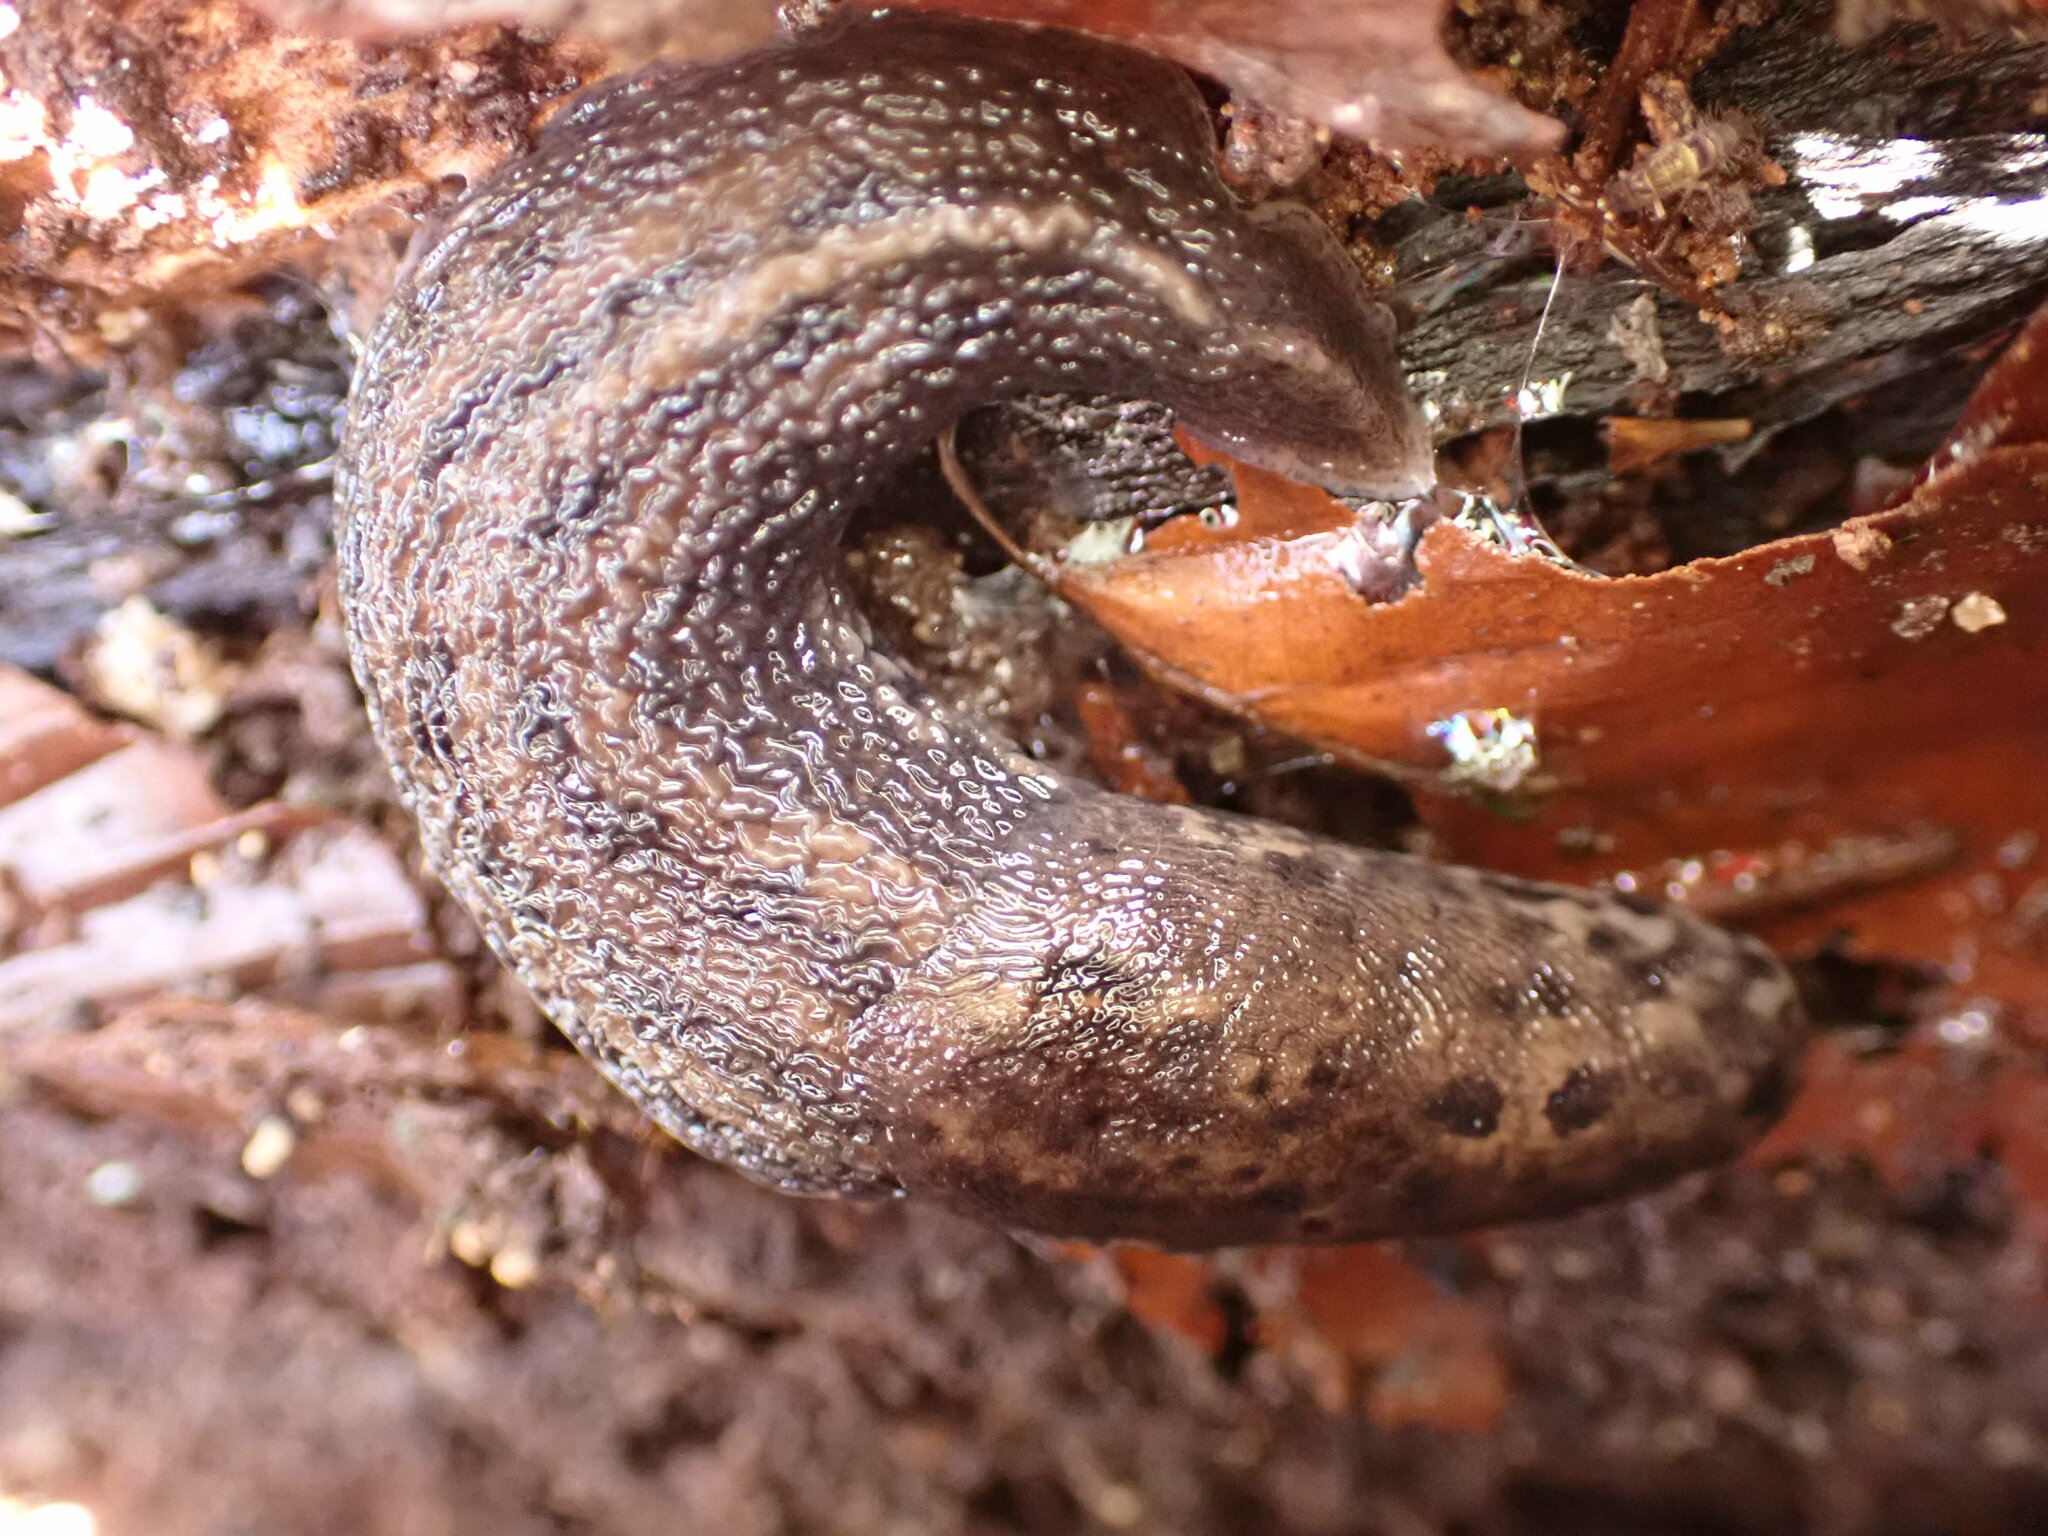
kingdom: Animalia
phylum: Mollusca
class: Gastropoda
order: Stylommatophora
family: Limacidae
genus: Limax
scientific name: Limax maximus
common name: Great grey slug
